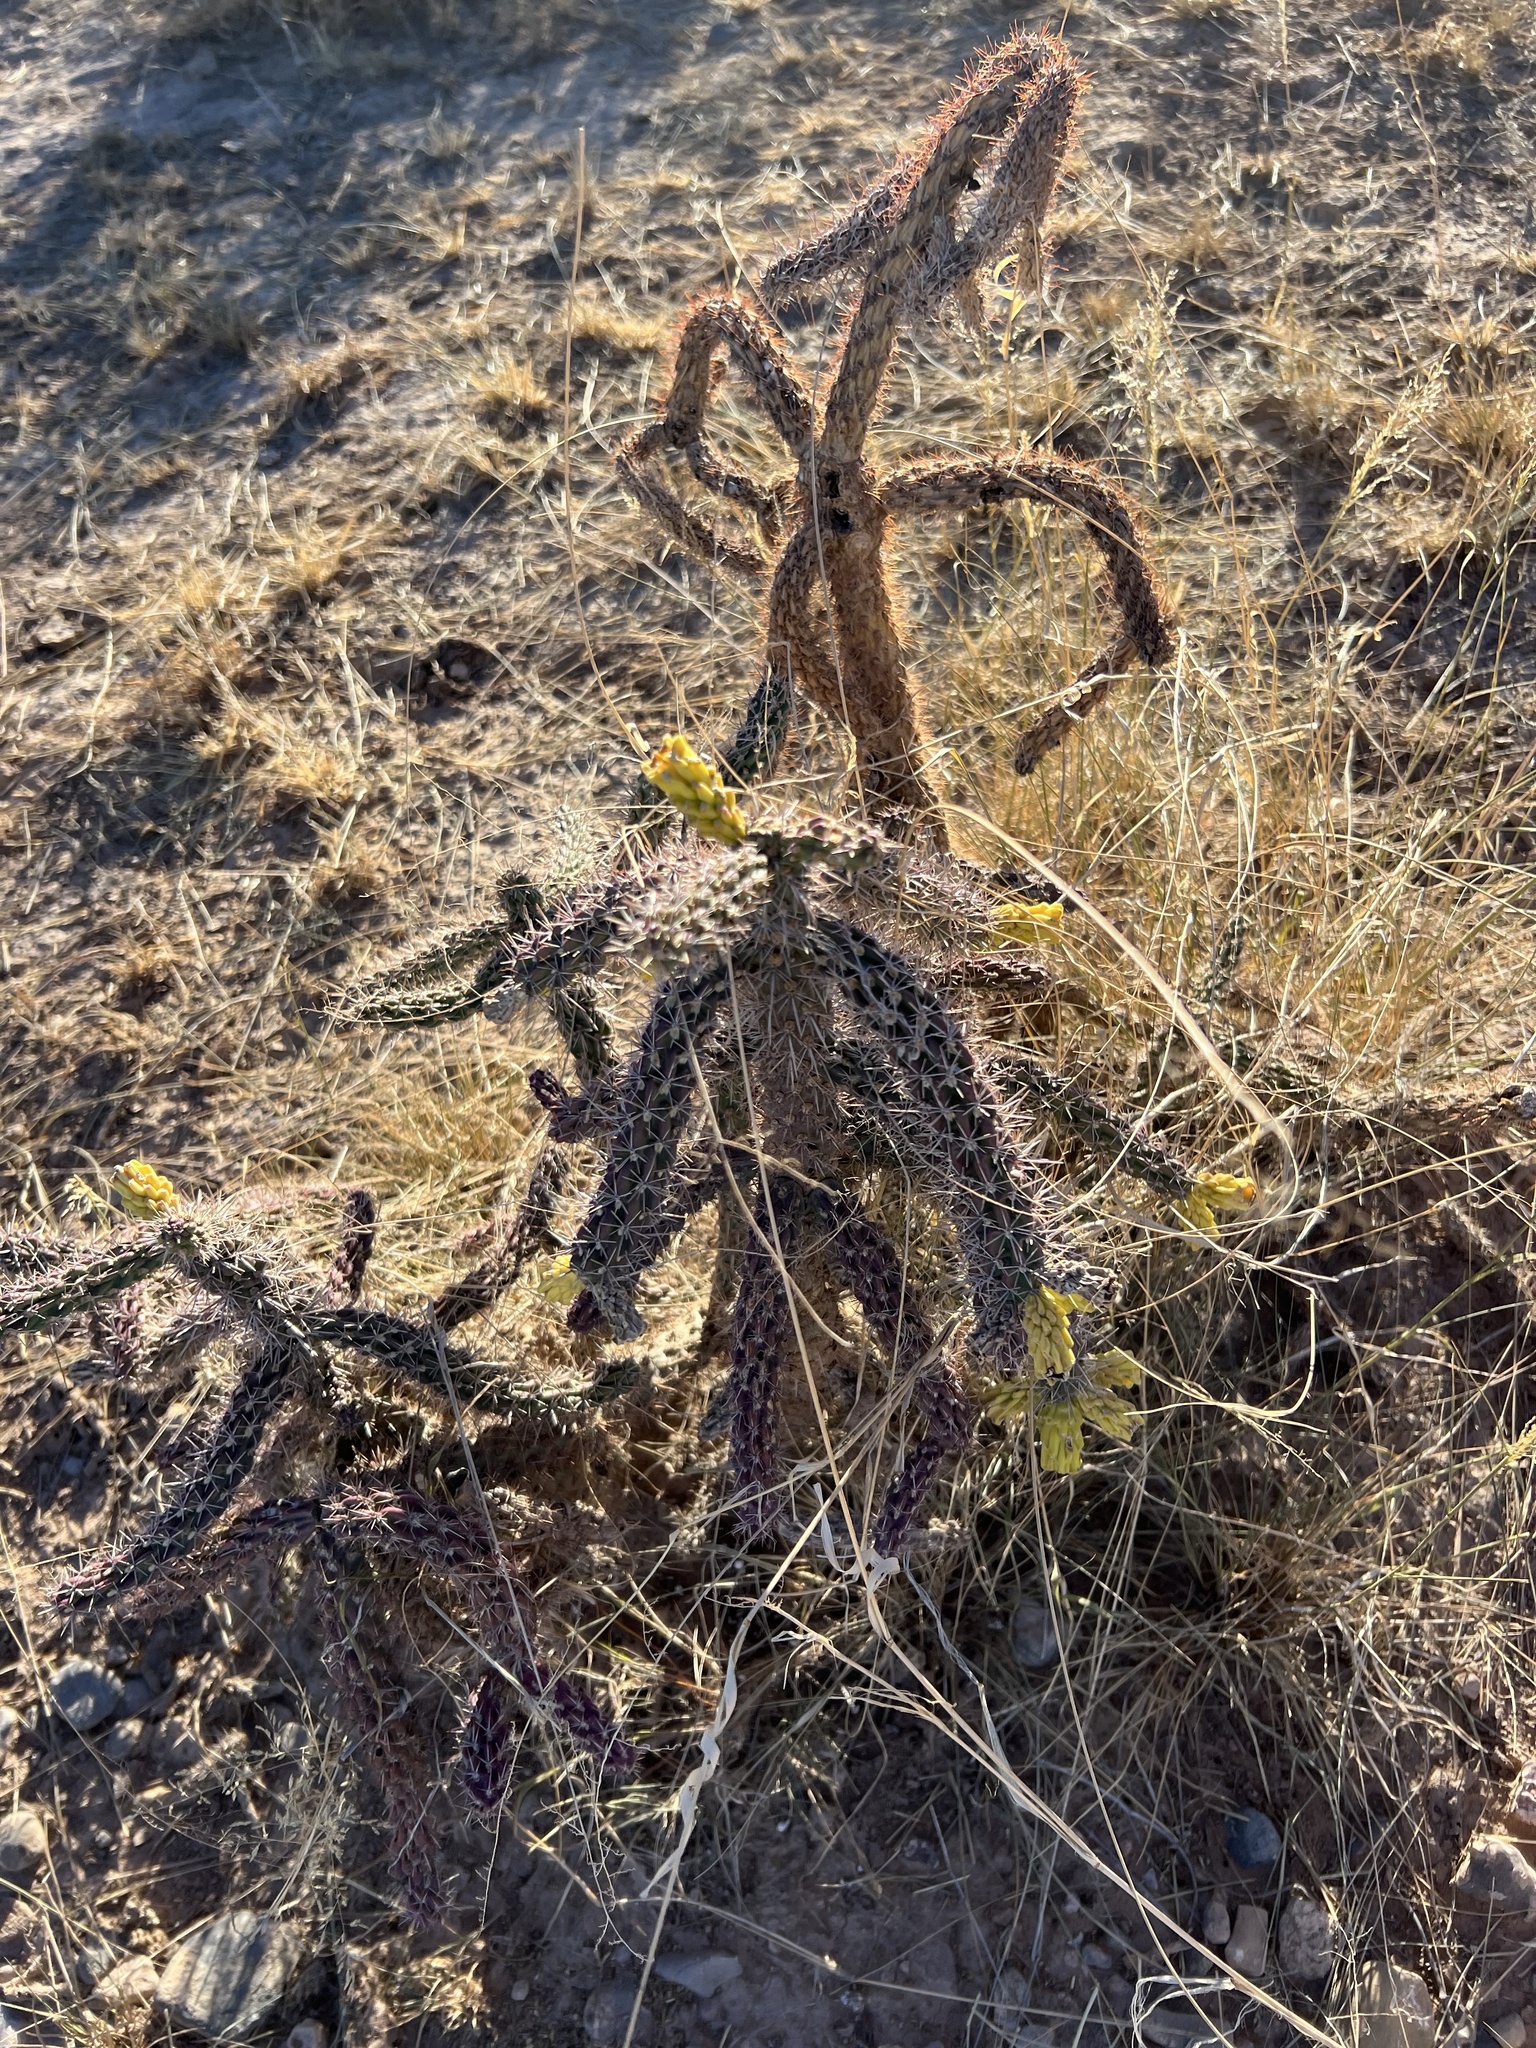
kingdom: Plantae
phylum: Tracheophyta
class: Magnoliopsida
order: Caryophyllales
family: Cactaceae
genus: Cylindropuntia
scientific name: Cylindropuntia imbricata
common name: Candelabrum cactus
